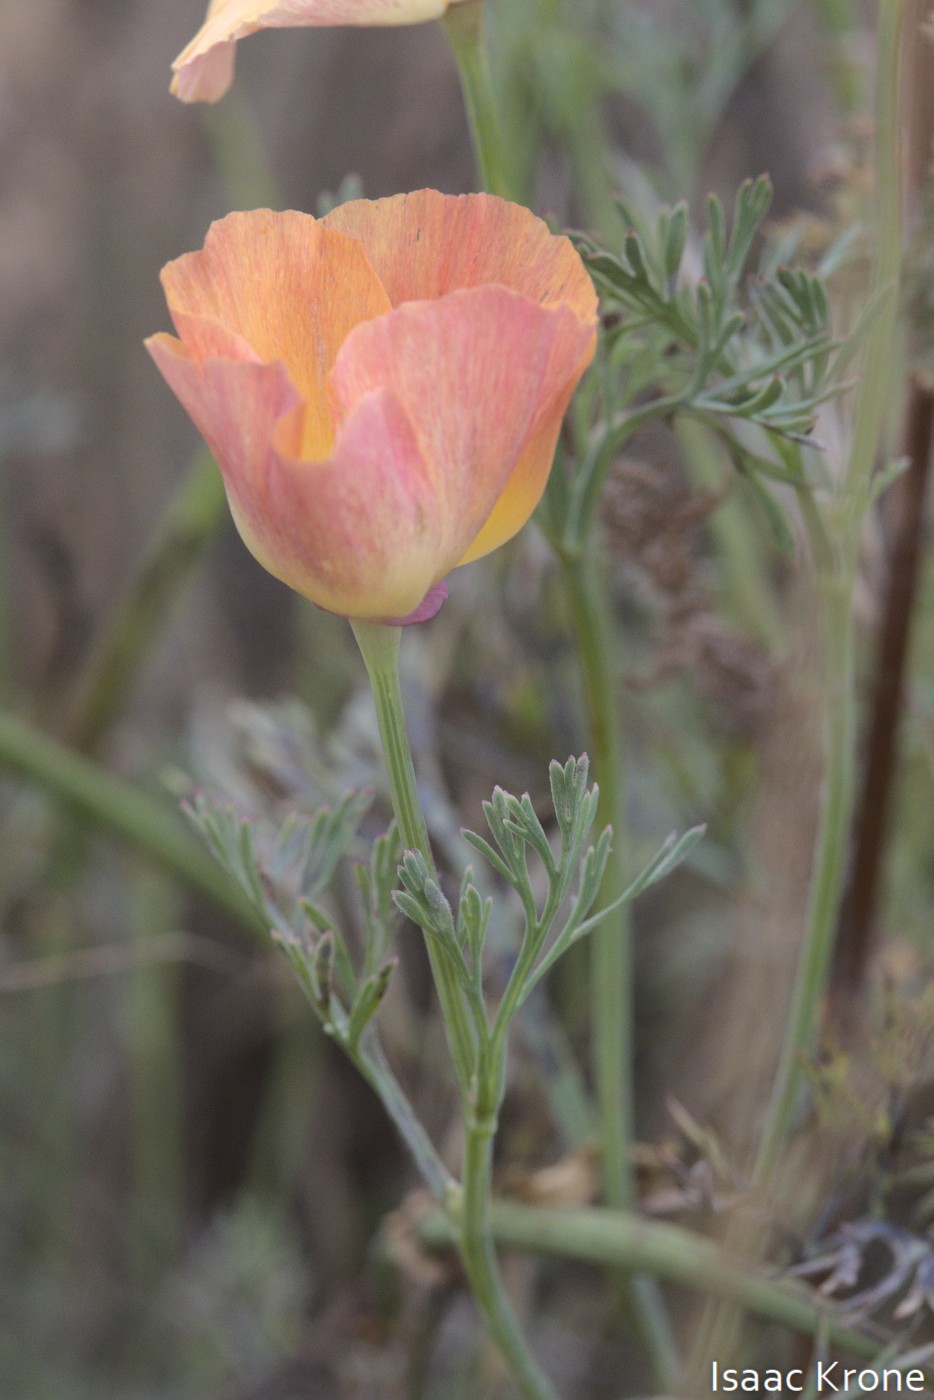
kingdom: Plantae
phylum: Tracheophyta
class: Magnoliopsida
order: Ranunculales
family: Papaveraceae
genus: Eschscholzia
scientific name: Eschscholzia californica
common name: California poppy
